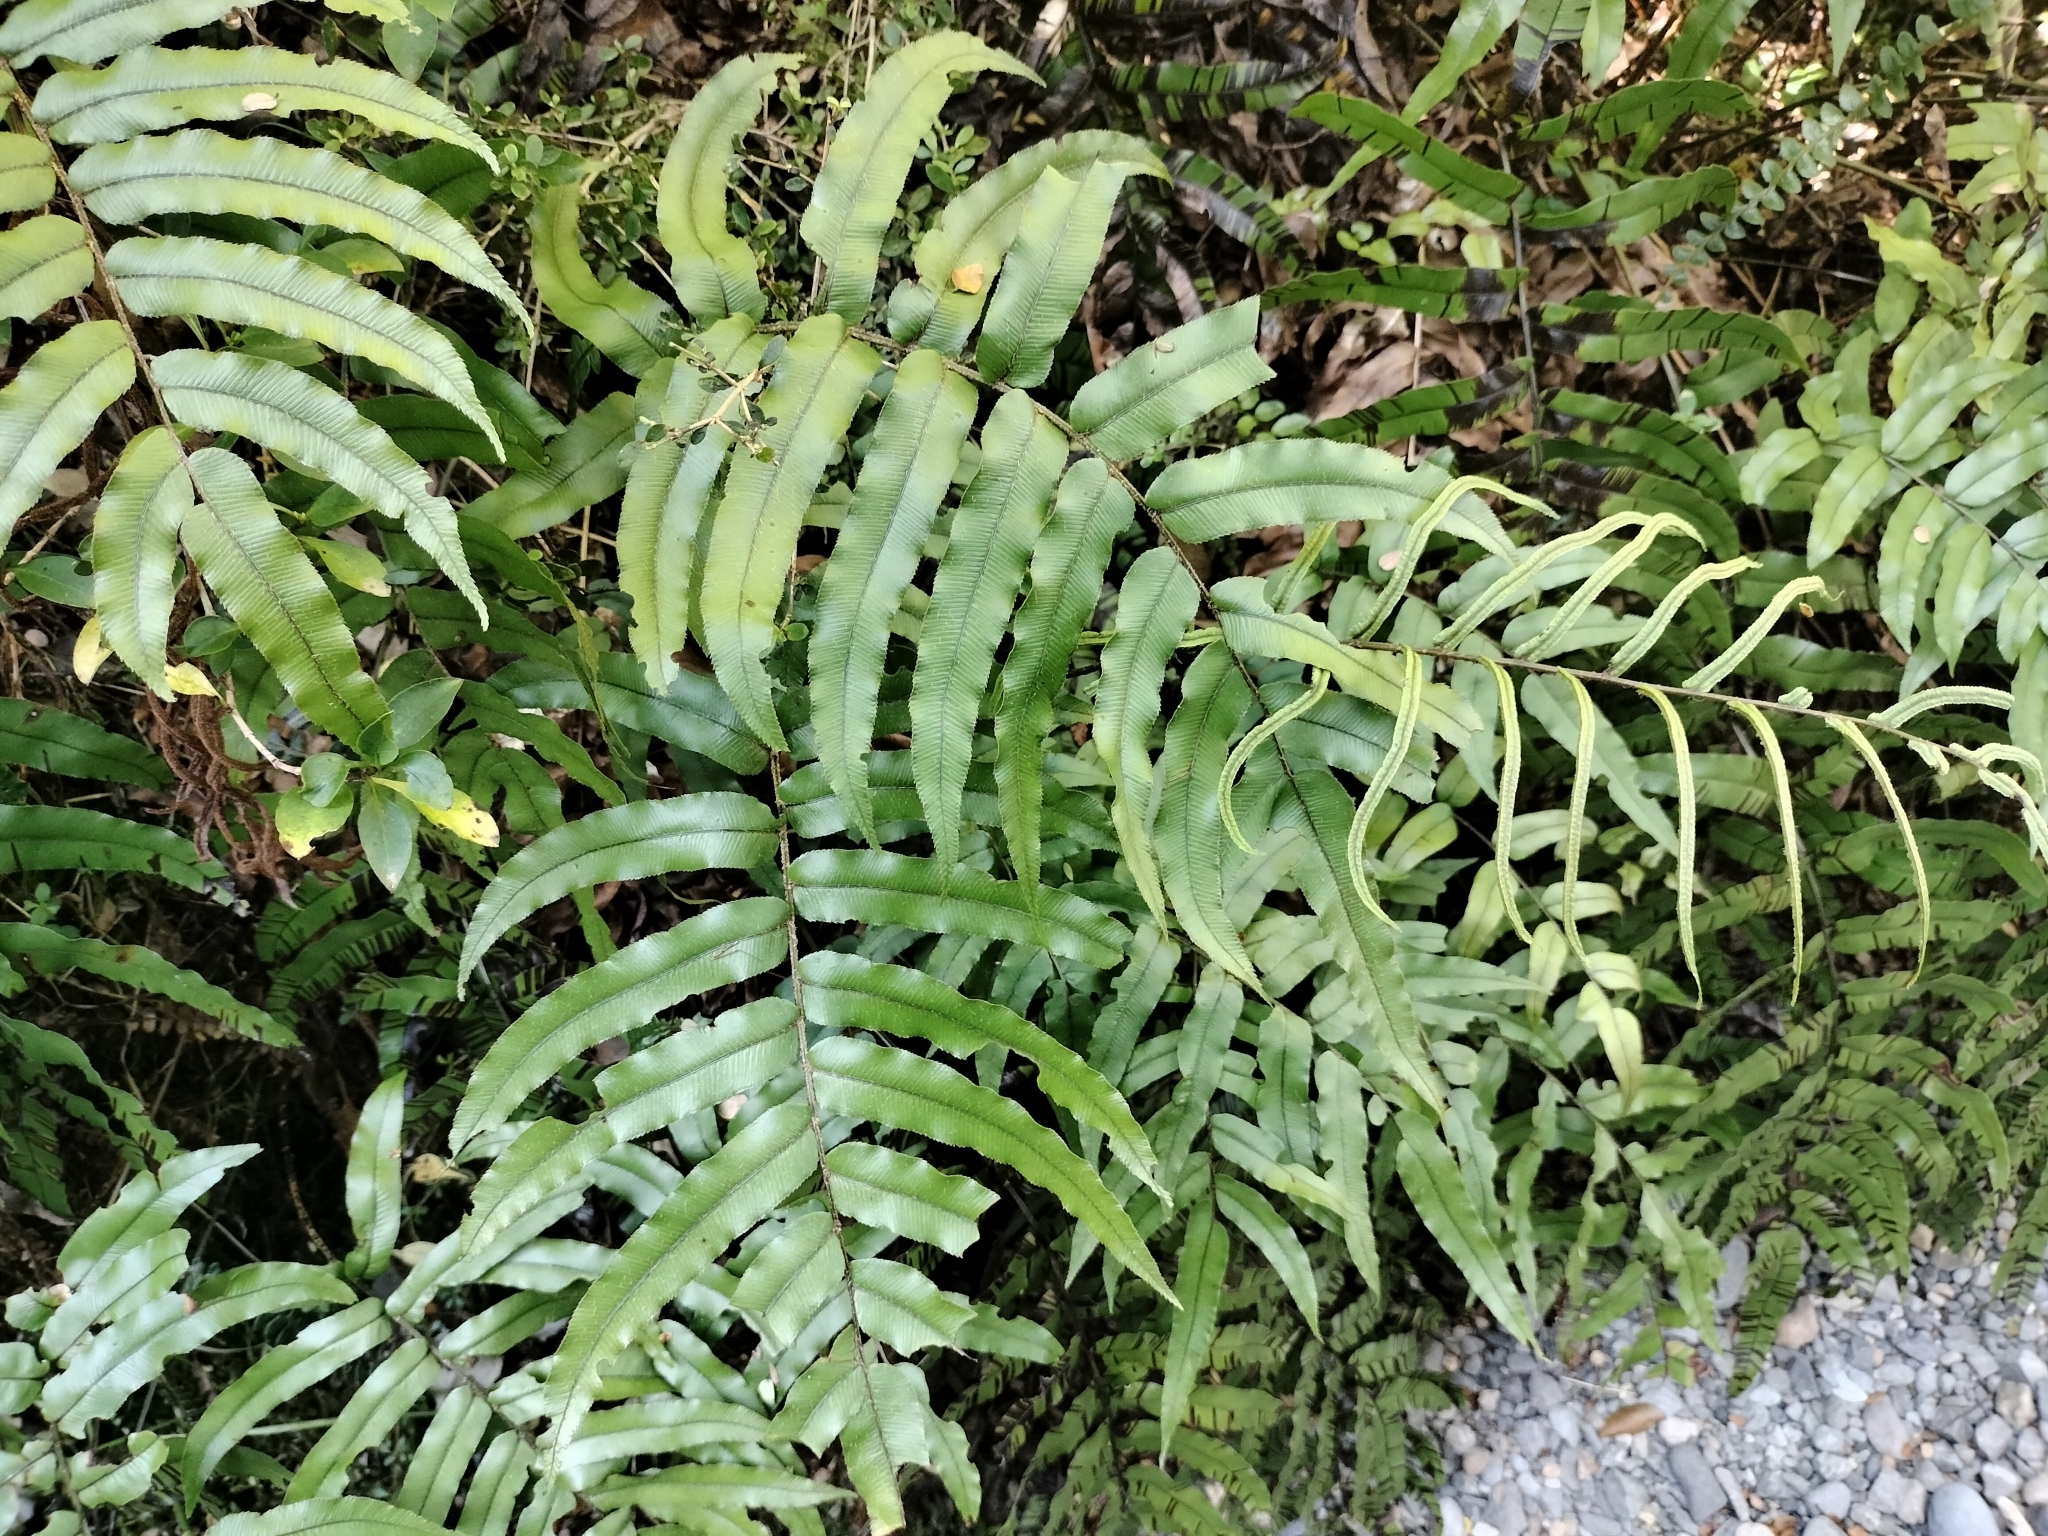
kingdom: Plantae
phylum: Tracheophyta
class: Polypodiopsida
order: Polypodiales
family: Blechnaceae
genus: Parablechnum
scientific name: Parablechnum montanum
